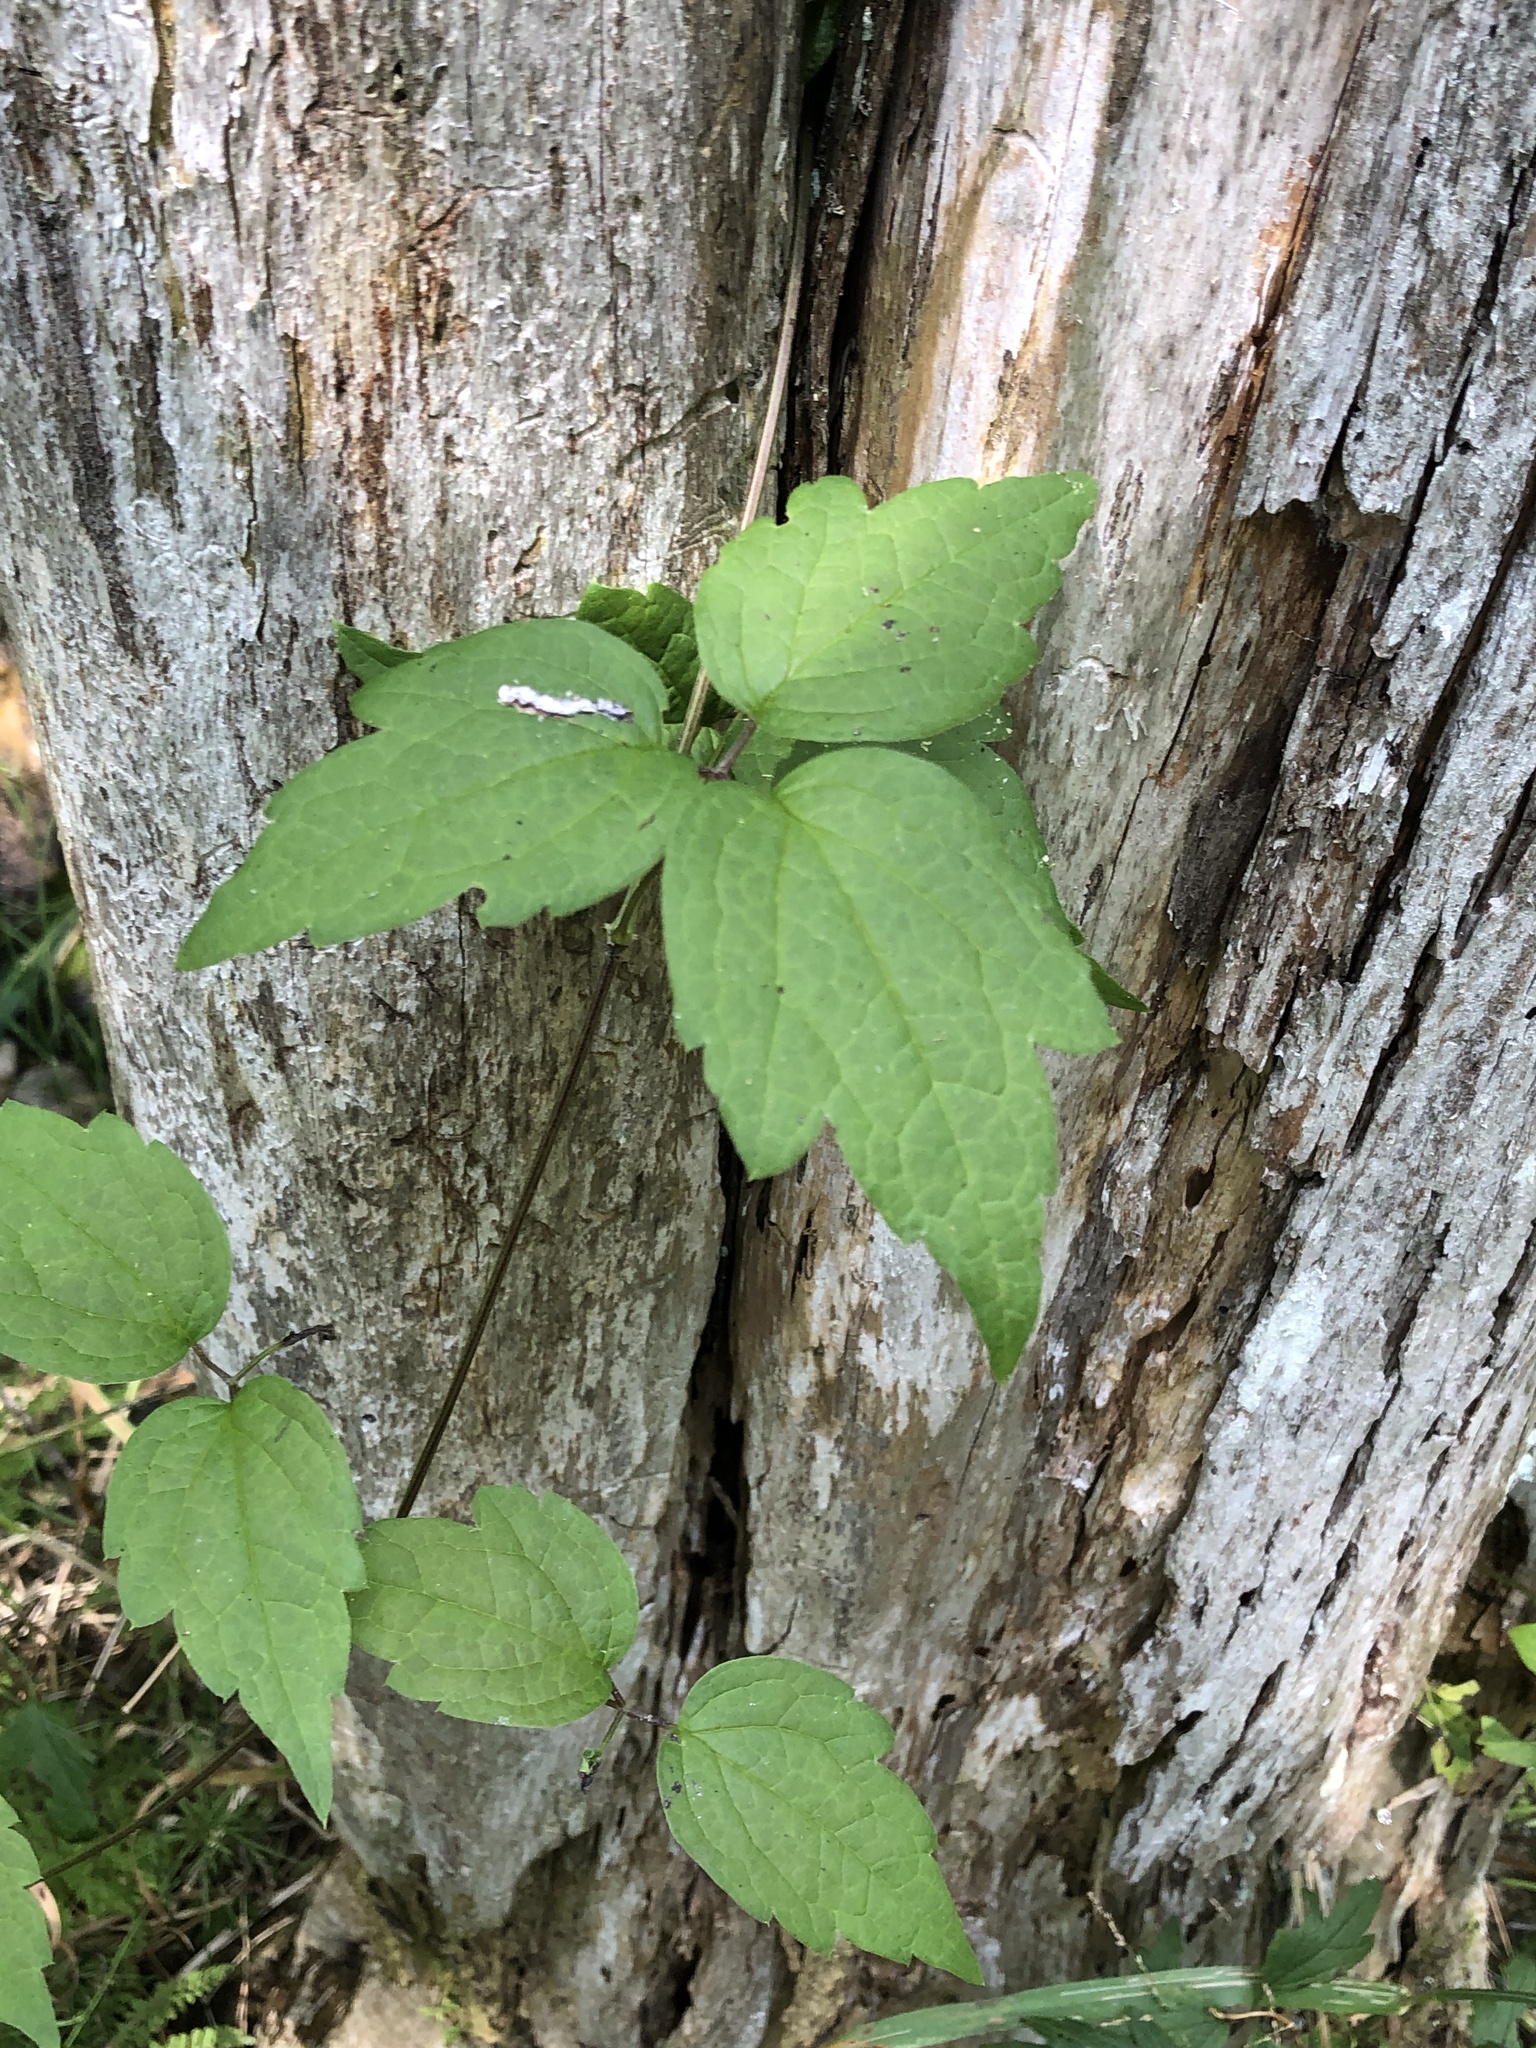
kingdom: Plantae
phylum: Tracheophyta
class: Magnoliopsida
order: Ranunculales
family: Ranunculaceae
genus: Clematis
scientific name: Clematis virginiana
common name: Virgin's-bower
